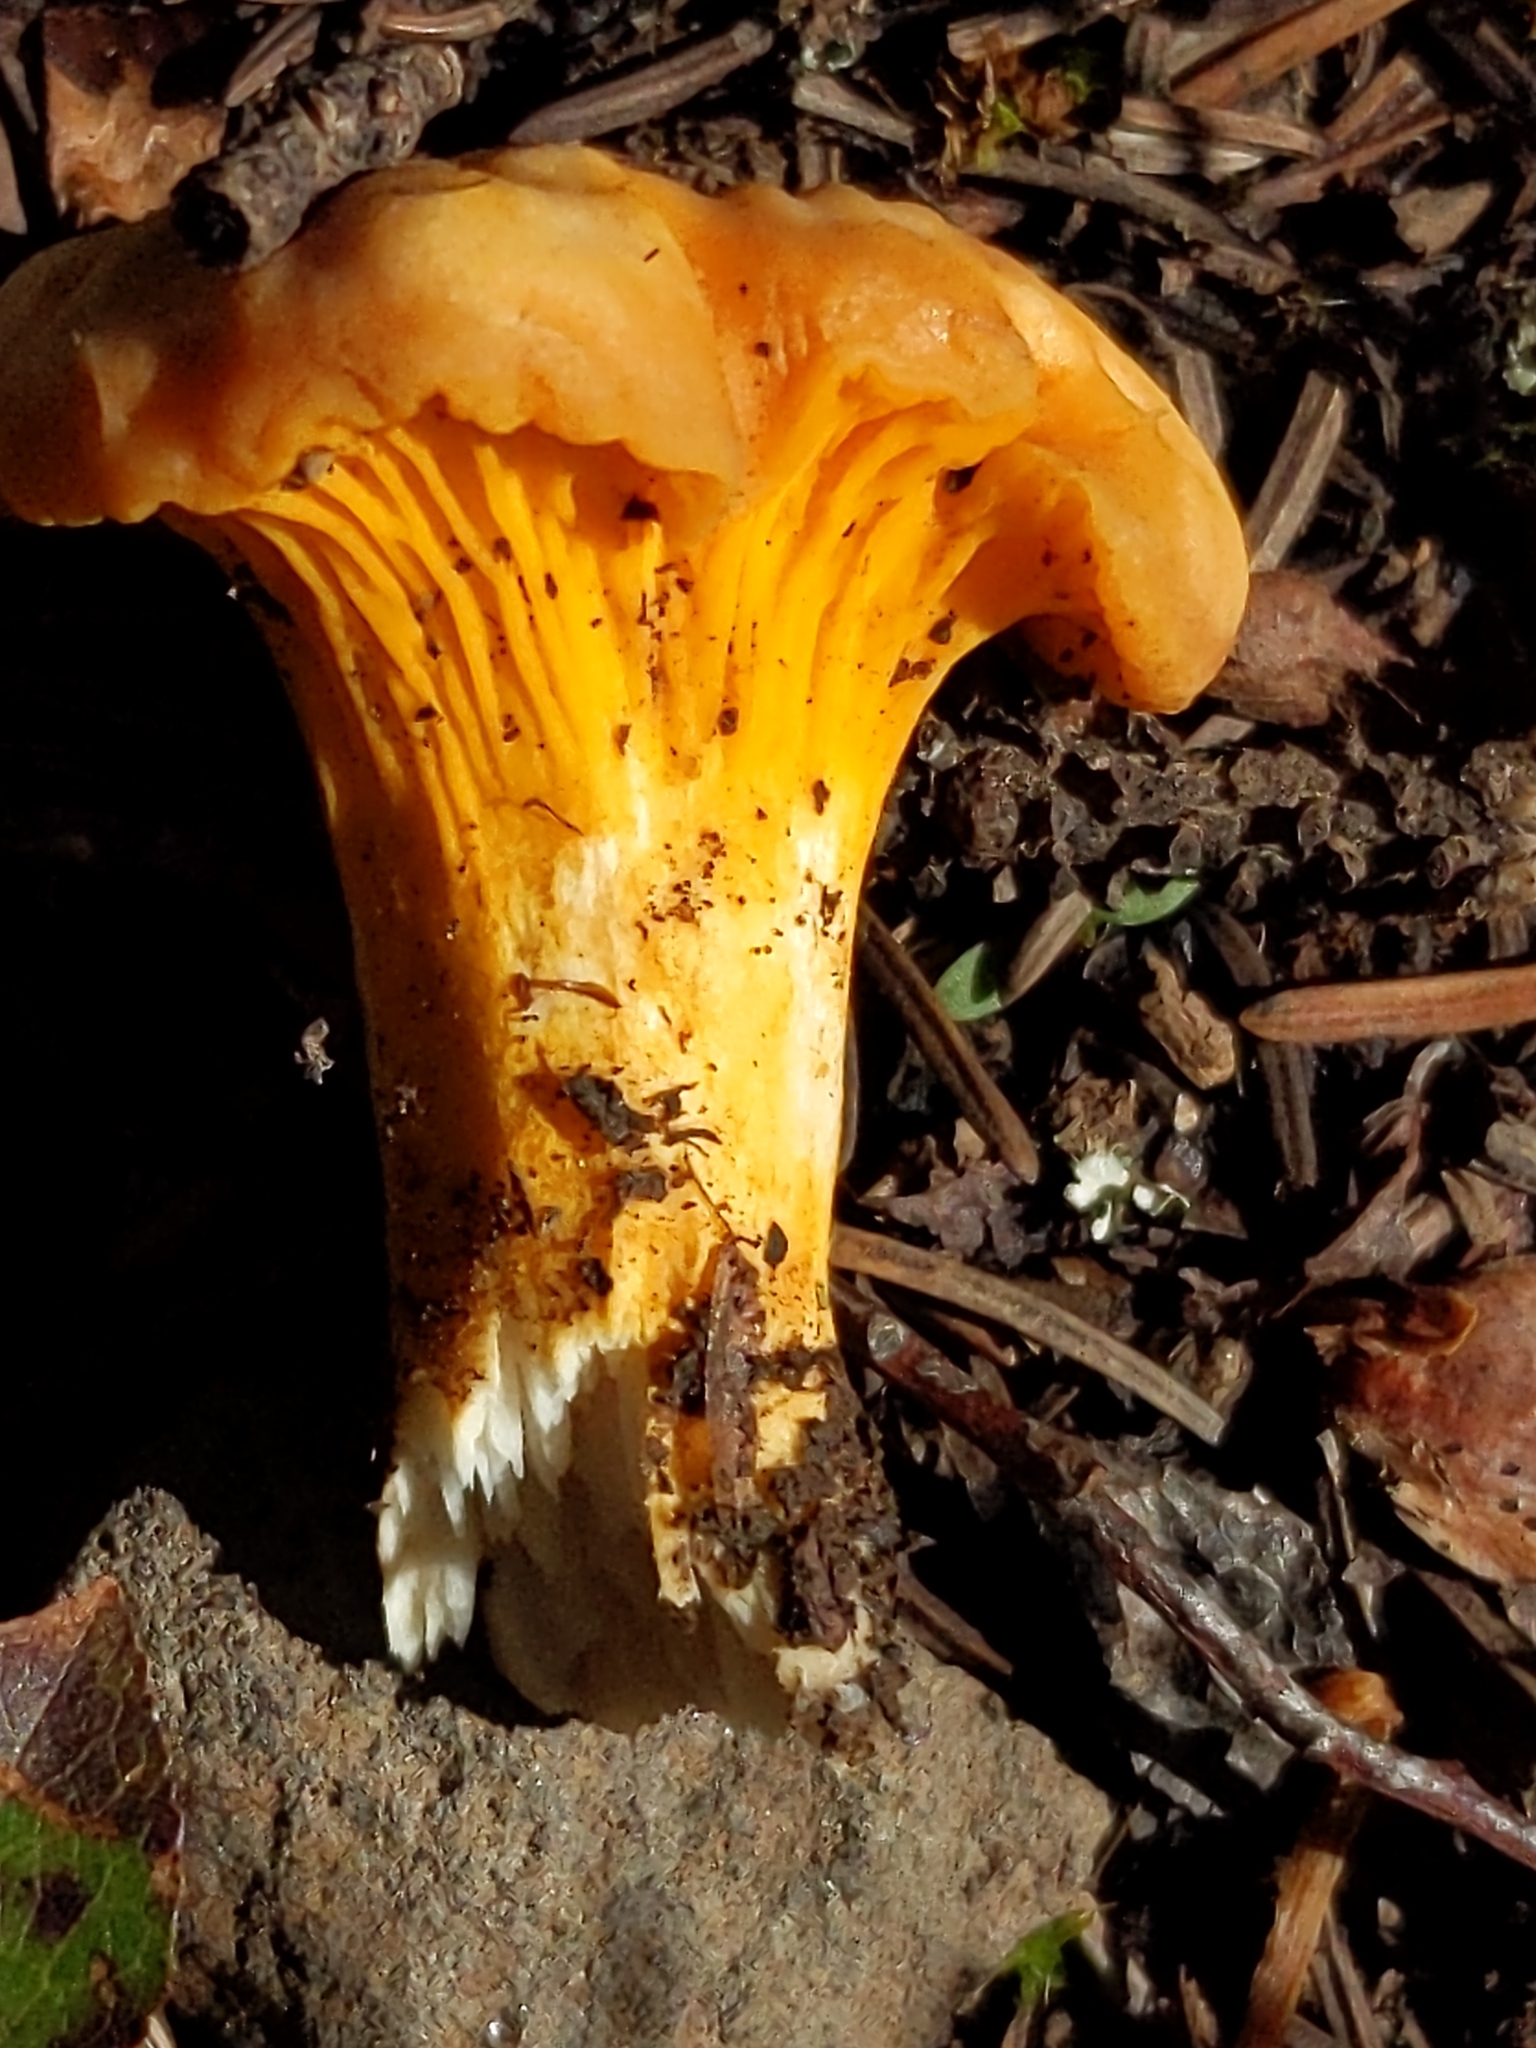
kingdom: Fungi
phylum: Basidiomycota
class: Agaricomycetes
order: Cantharellales
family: Hydnaceae
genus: Cantharellus
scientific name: Cantharellus roseocanus
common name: Rainbow chanterelle
